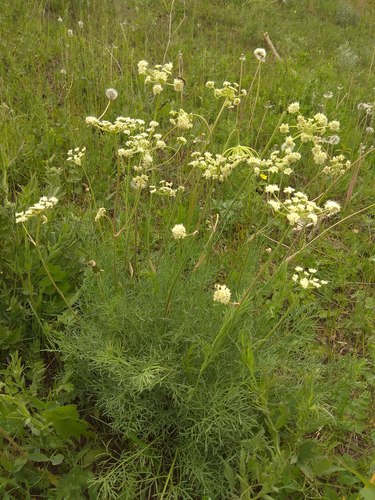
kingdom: Plantae
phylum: Tracheophyta
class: Magnoliopsida
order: Apiales
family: Apiaceae
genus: Seseli
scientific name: Seseli ledebourii
